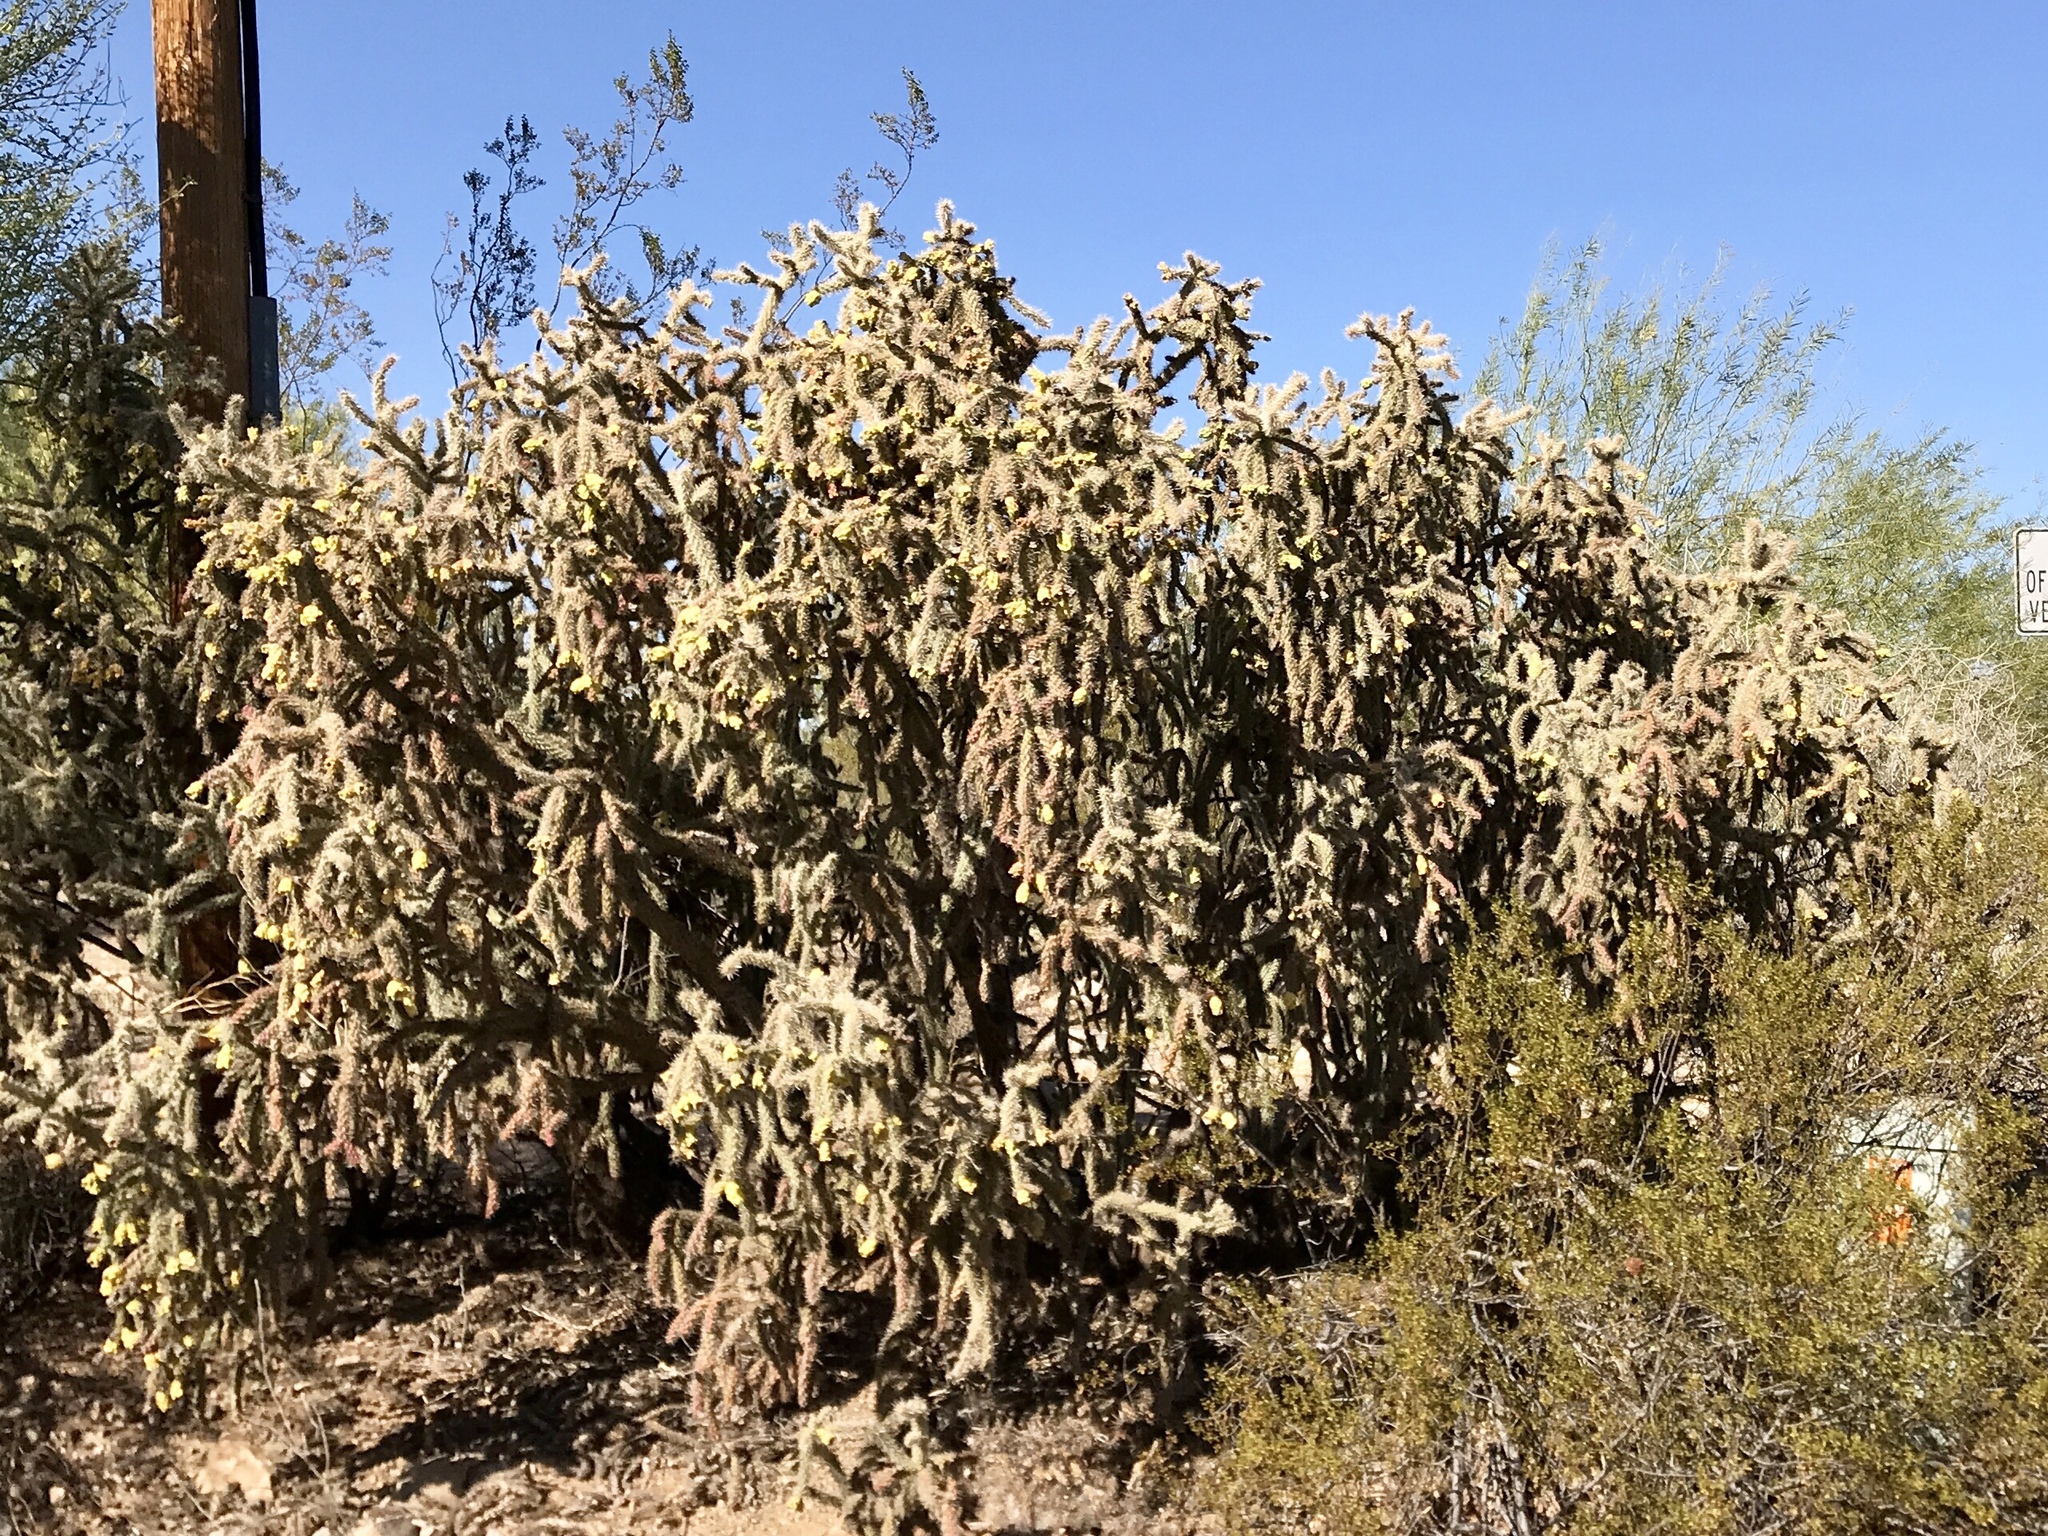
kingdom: Plantae
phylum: Tracheophyta
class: Magnoliopsida
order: Caryophyllales
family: Cactaceae
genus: Cylindropuntia
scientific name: Cylindropuntia thurberi
